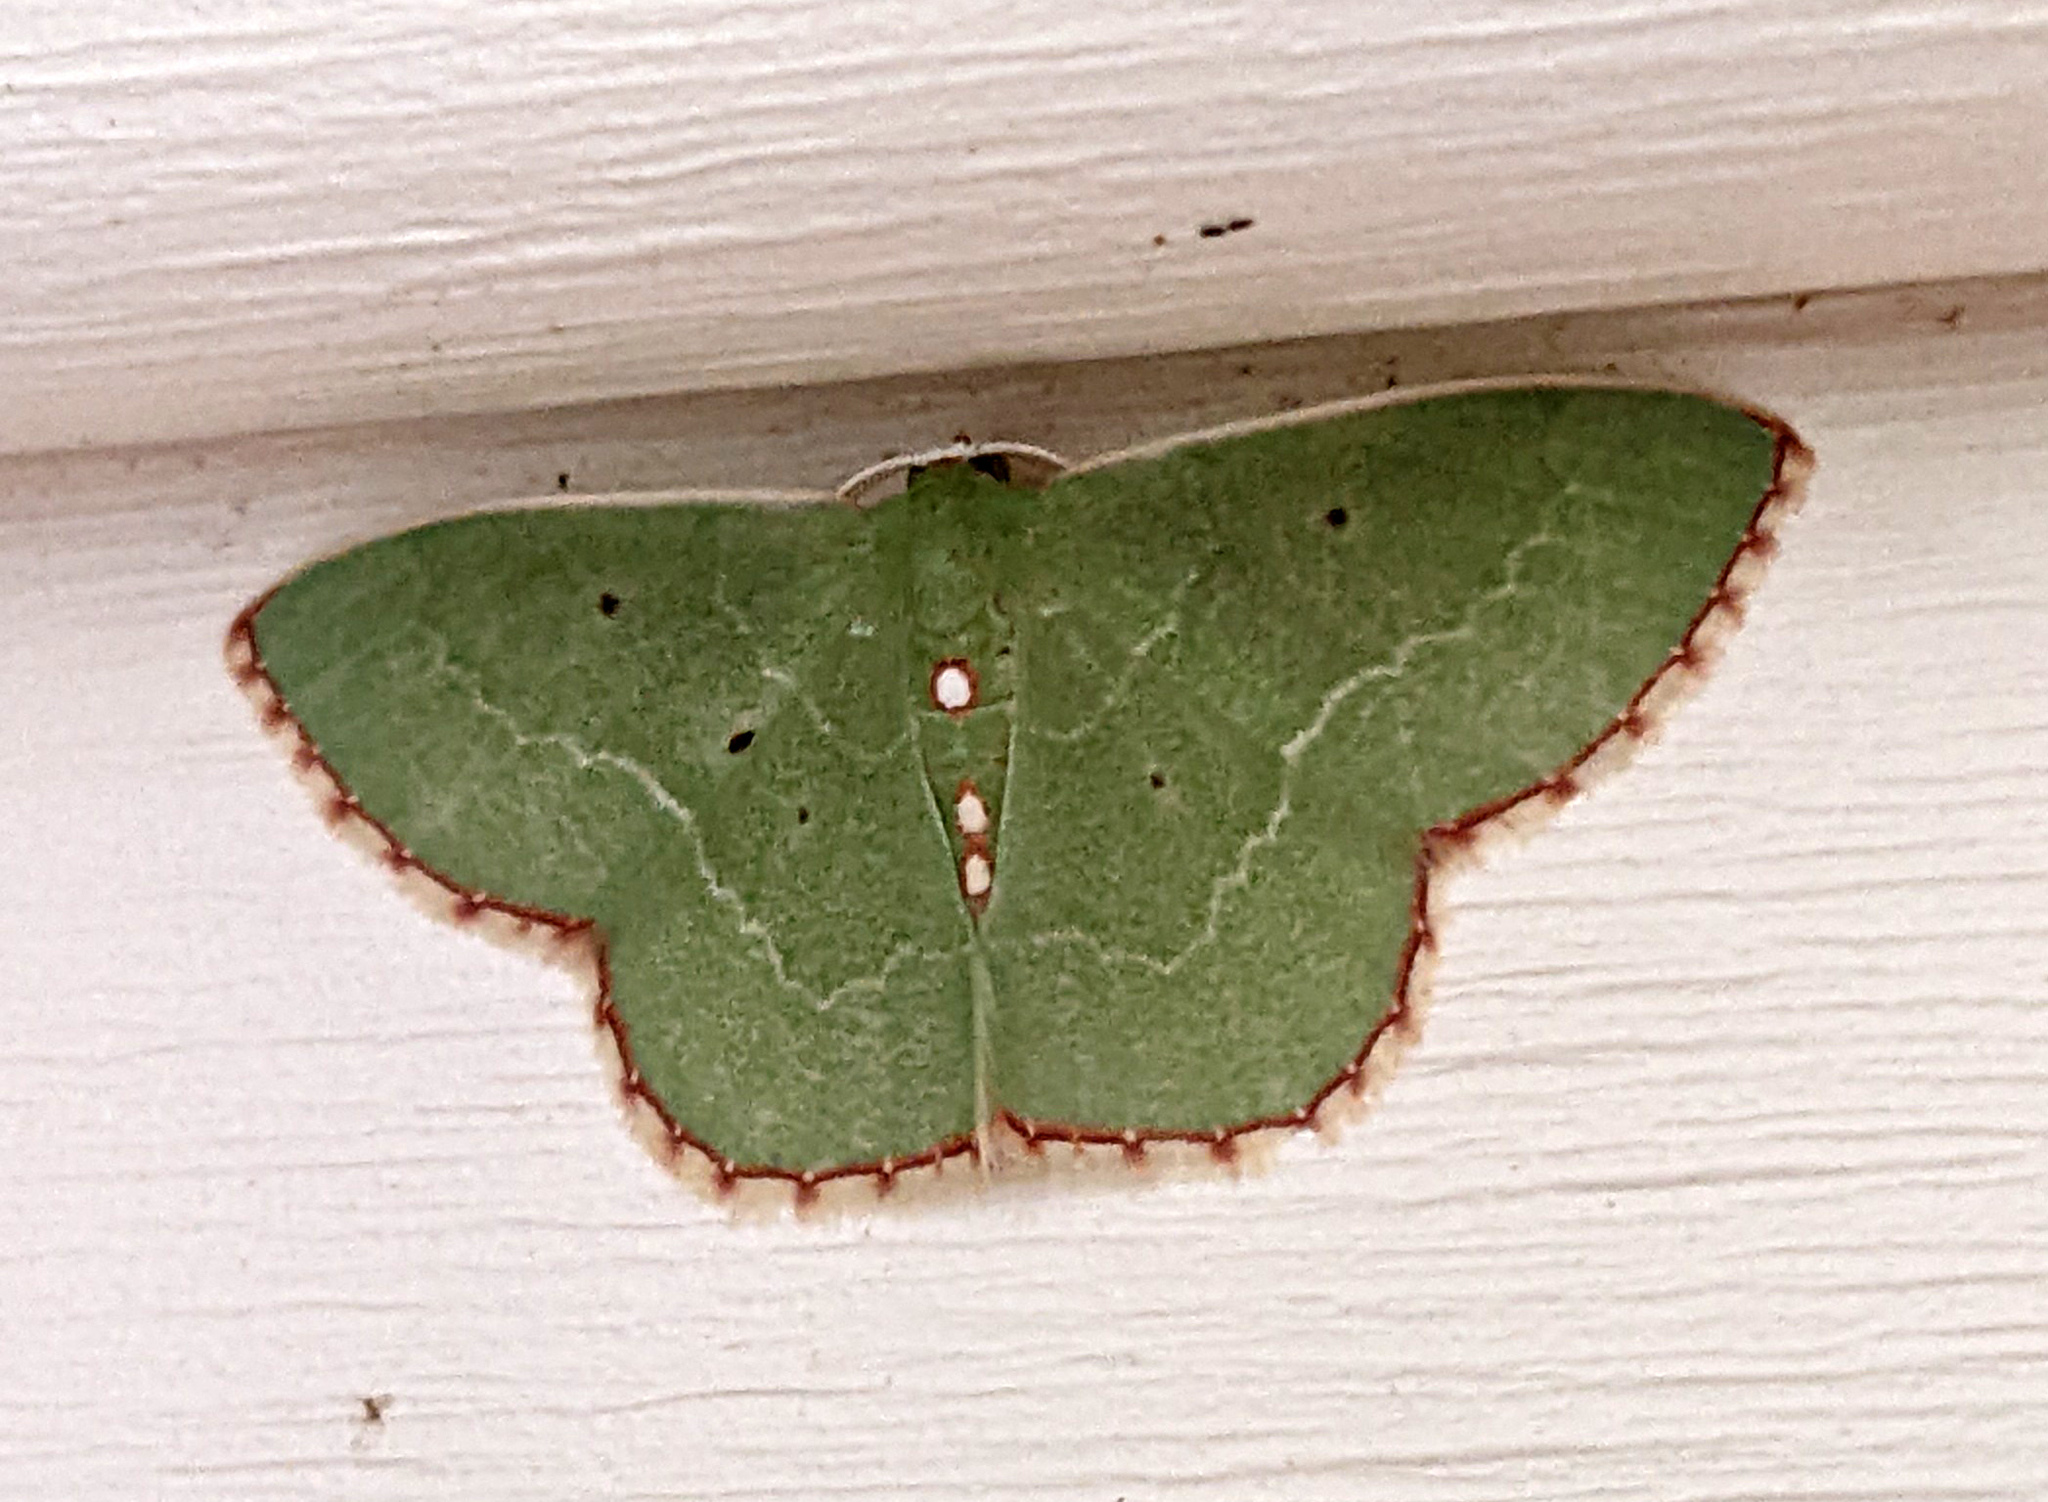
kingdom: Animalia
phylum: Arthropoda
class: Insecta
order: Lepidoptera
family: Geometridae
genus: Nemoria
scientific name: Nemoria lixaria
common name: Red-bordered emerald
